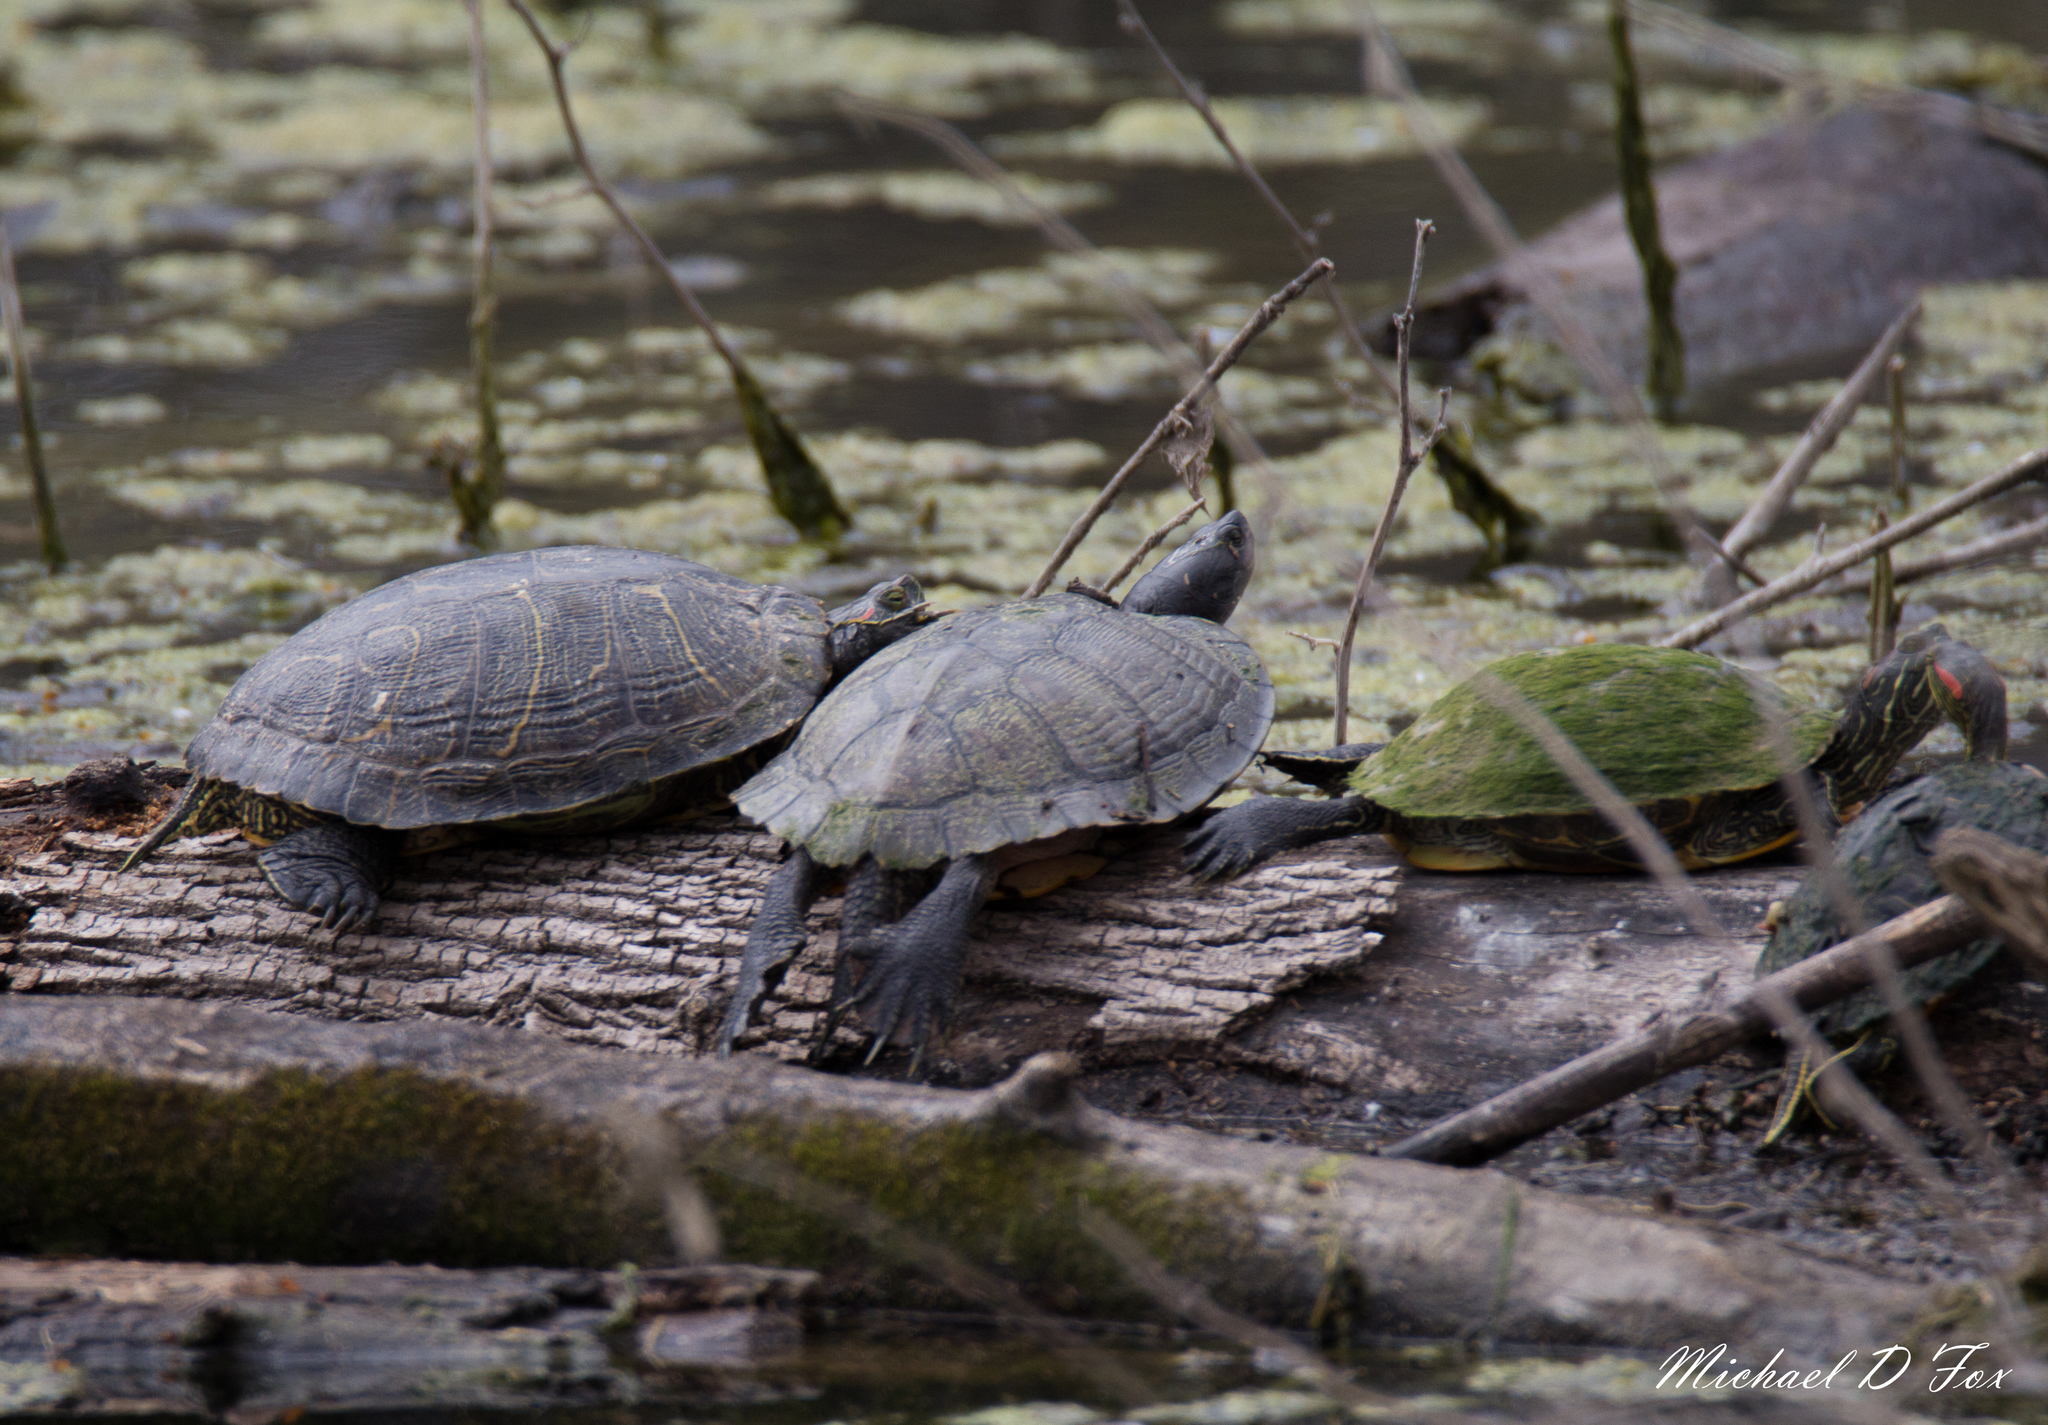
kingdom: Animalia
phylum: Chordata
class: Testudines
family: Emydidae
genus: Trachemys
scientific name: Trachemys scripta
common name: Slider
